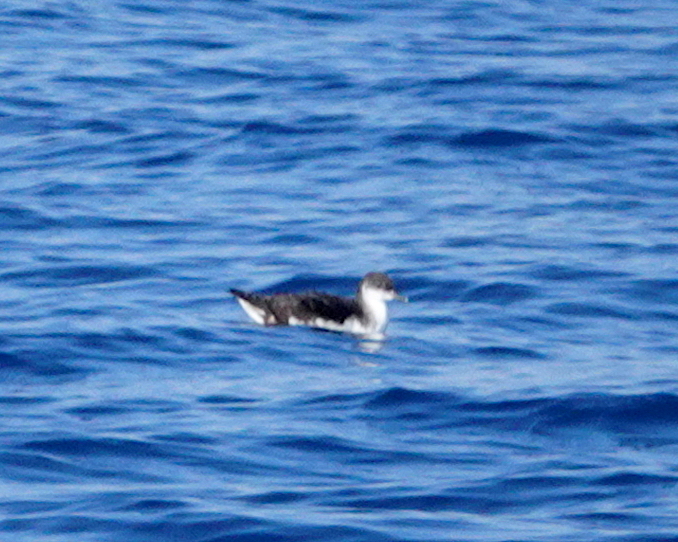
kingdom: Animalia
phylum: Chordata
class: Aves
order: Procellariiformes
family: Procellariidae
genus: Puffinus
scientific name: Puffinus puffinus
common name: Manx shearwater
